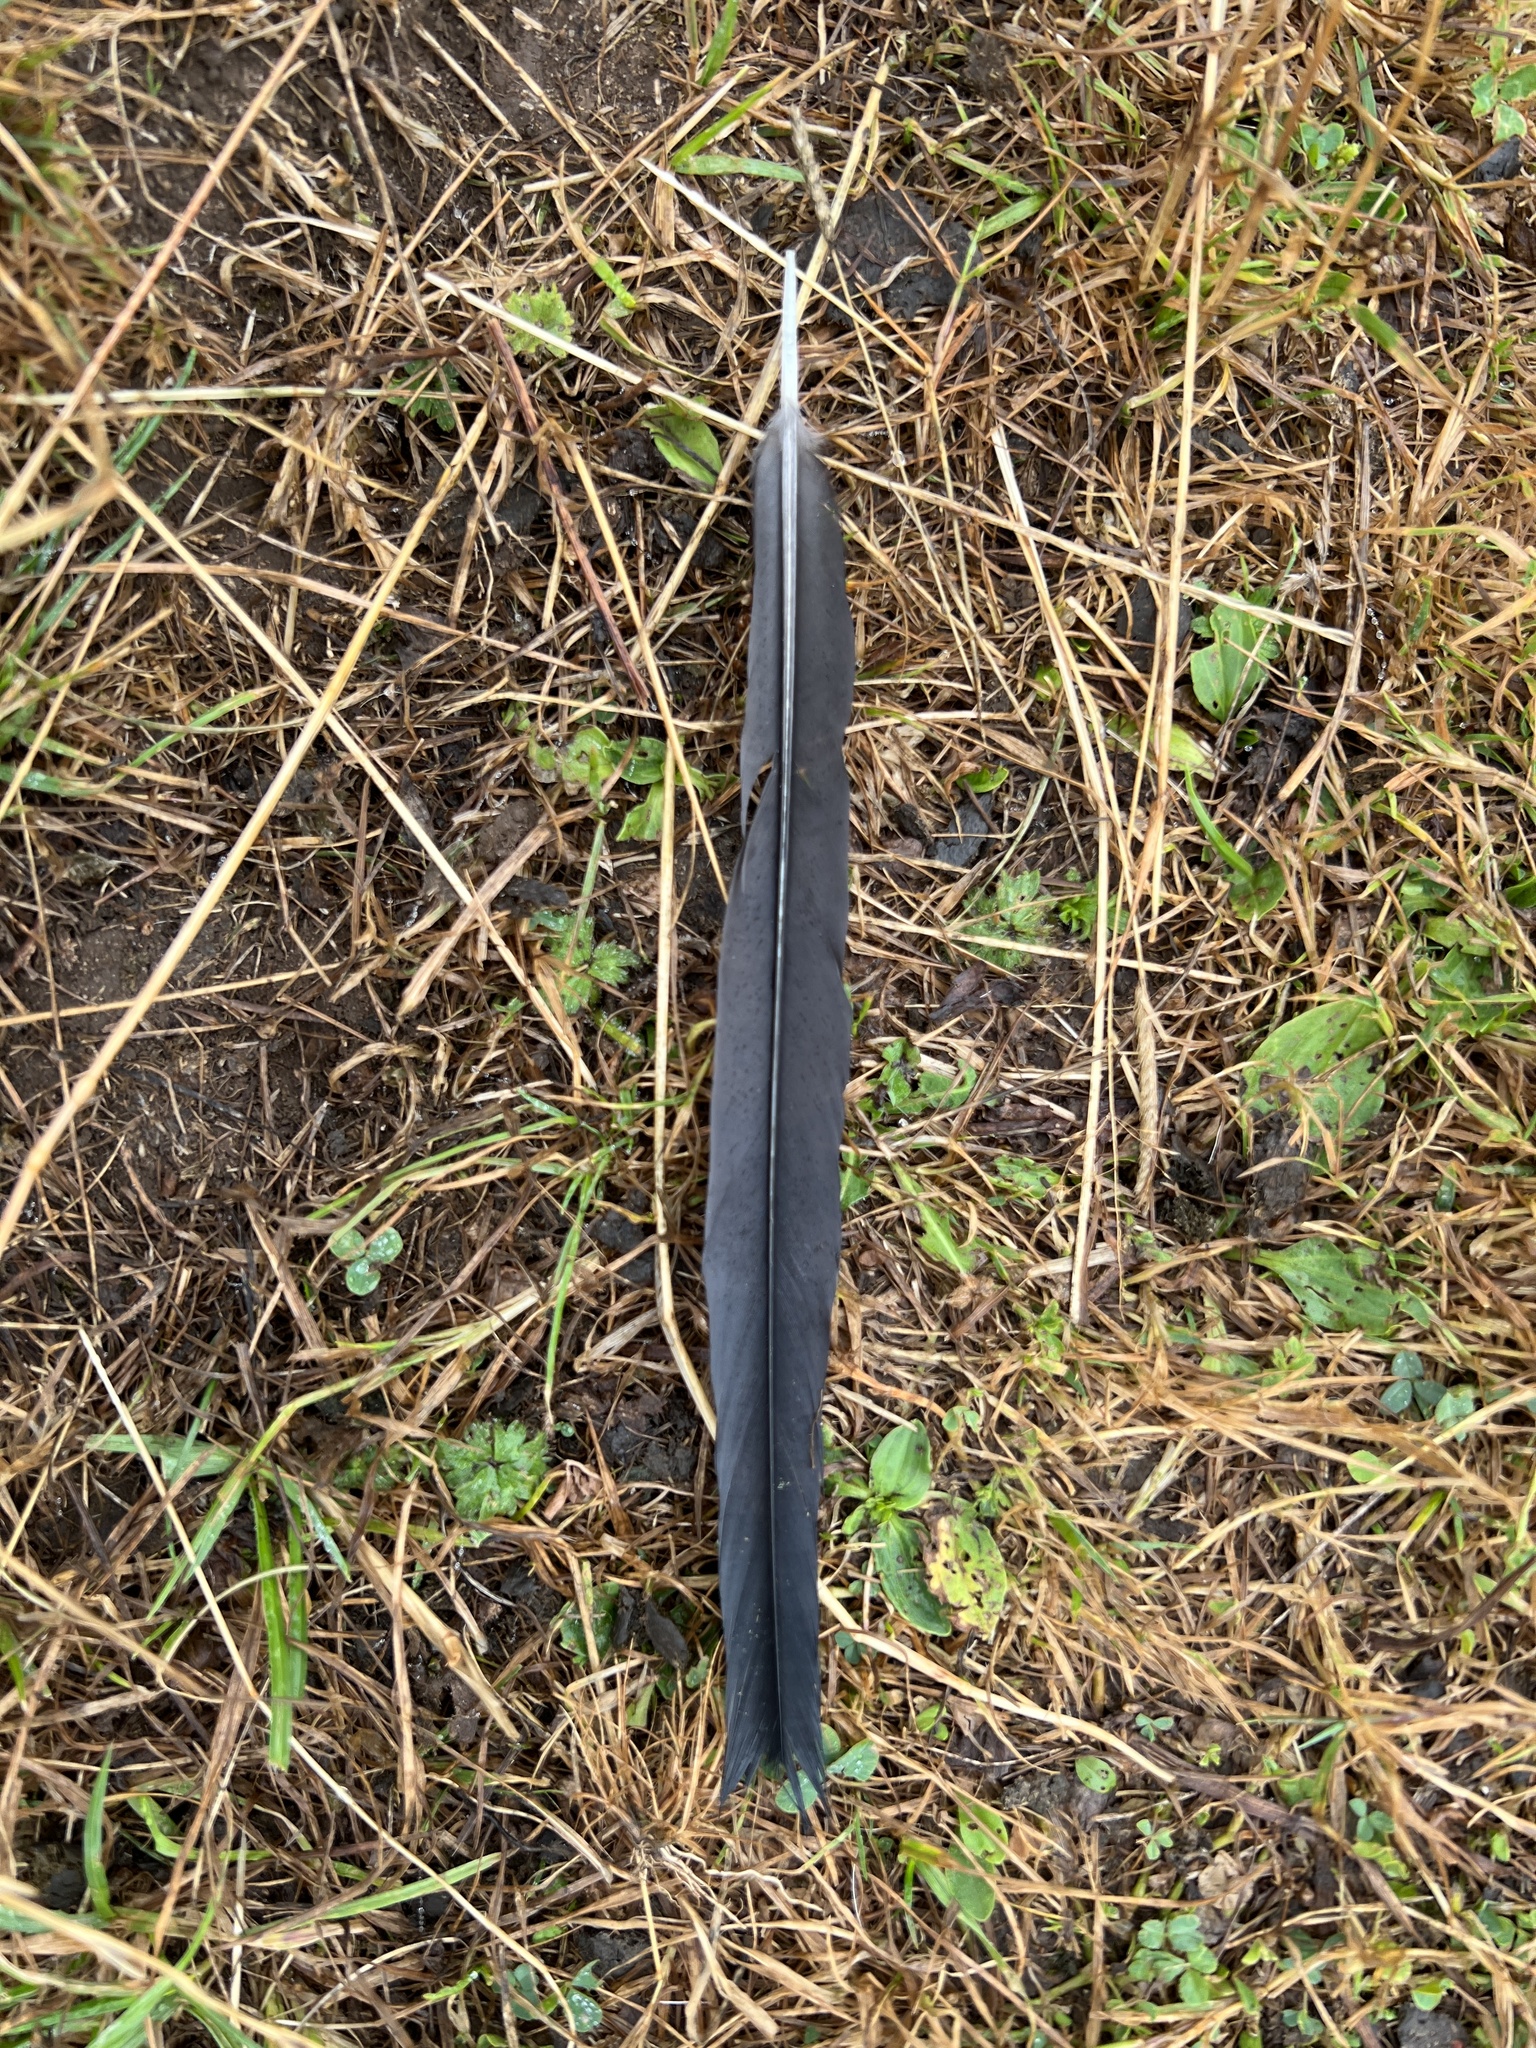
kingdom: Animalia
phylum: Chordata
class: Aves
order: Passeriformes
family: Corvidae
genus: Pica
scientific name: Pica pica
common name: Eurasian magpie
